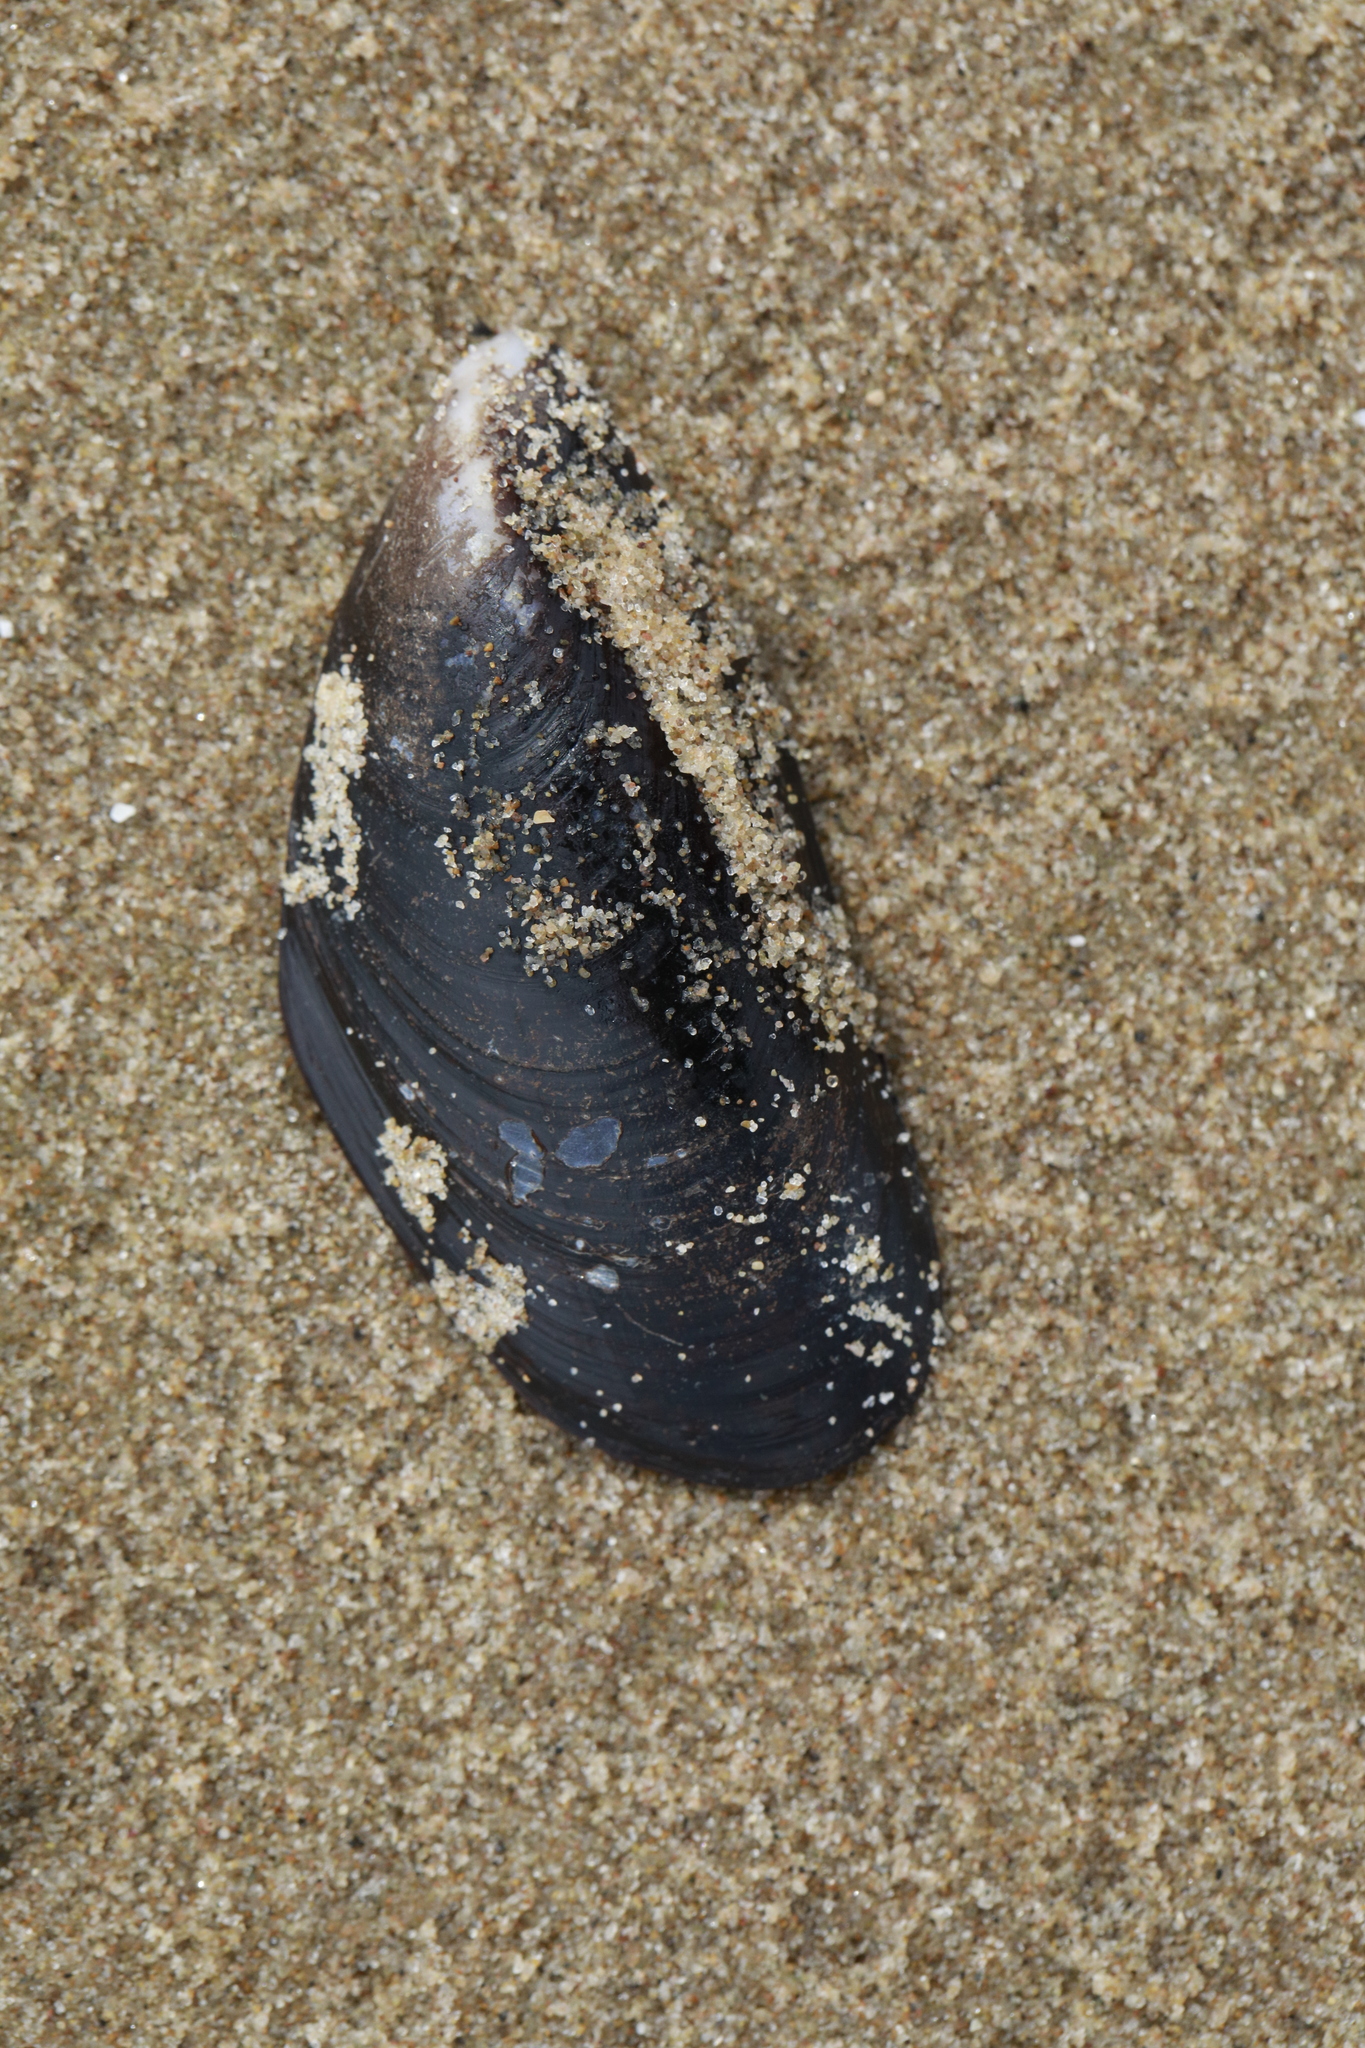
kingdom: Animalia
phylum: Mollusca
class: Bivalvia
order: Mytilida
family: Mytilidae
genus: Mytilus
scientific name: Mytilus edulis
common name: Blue mussel
